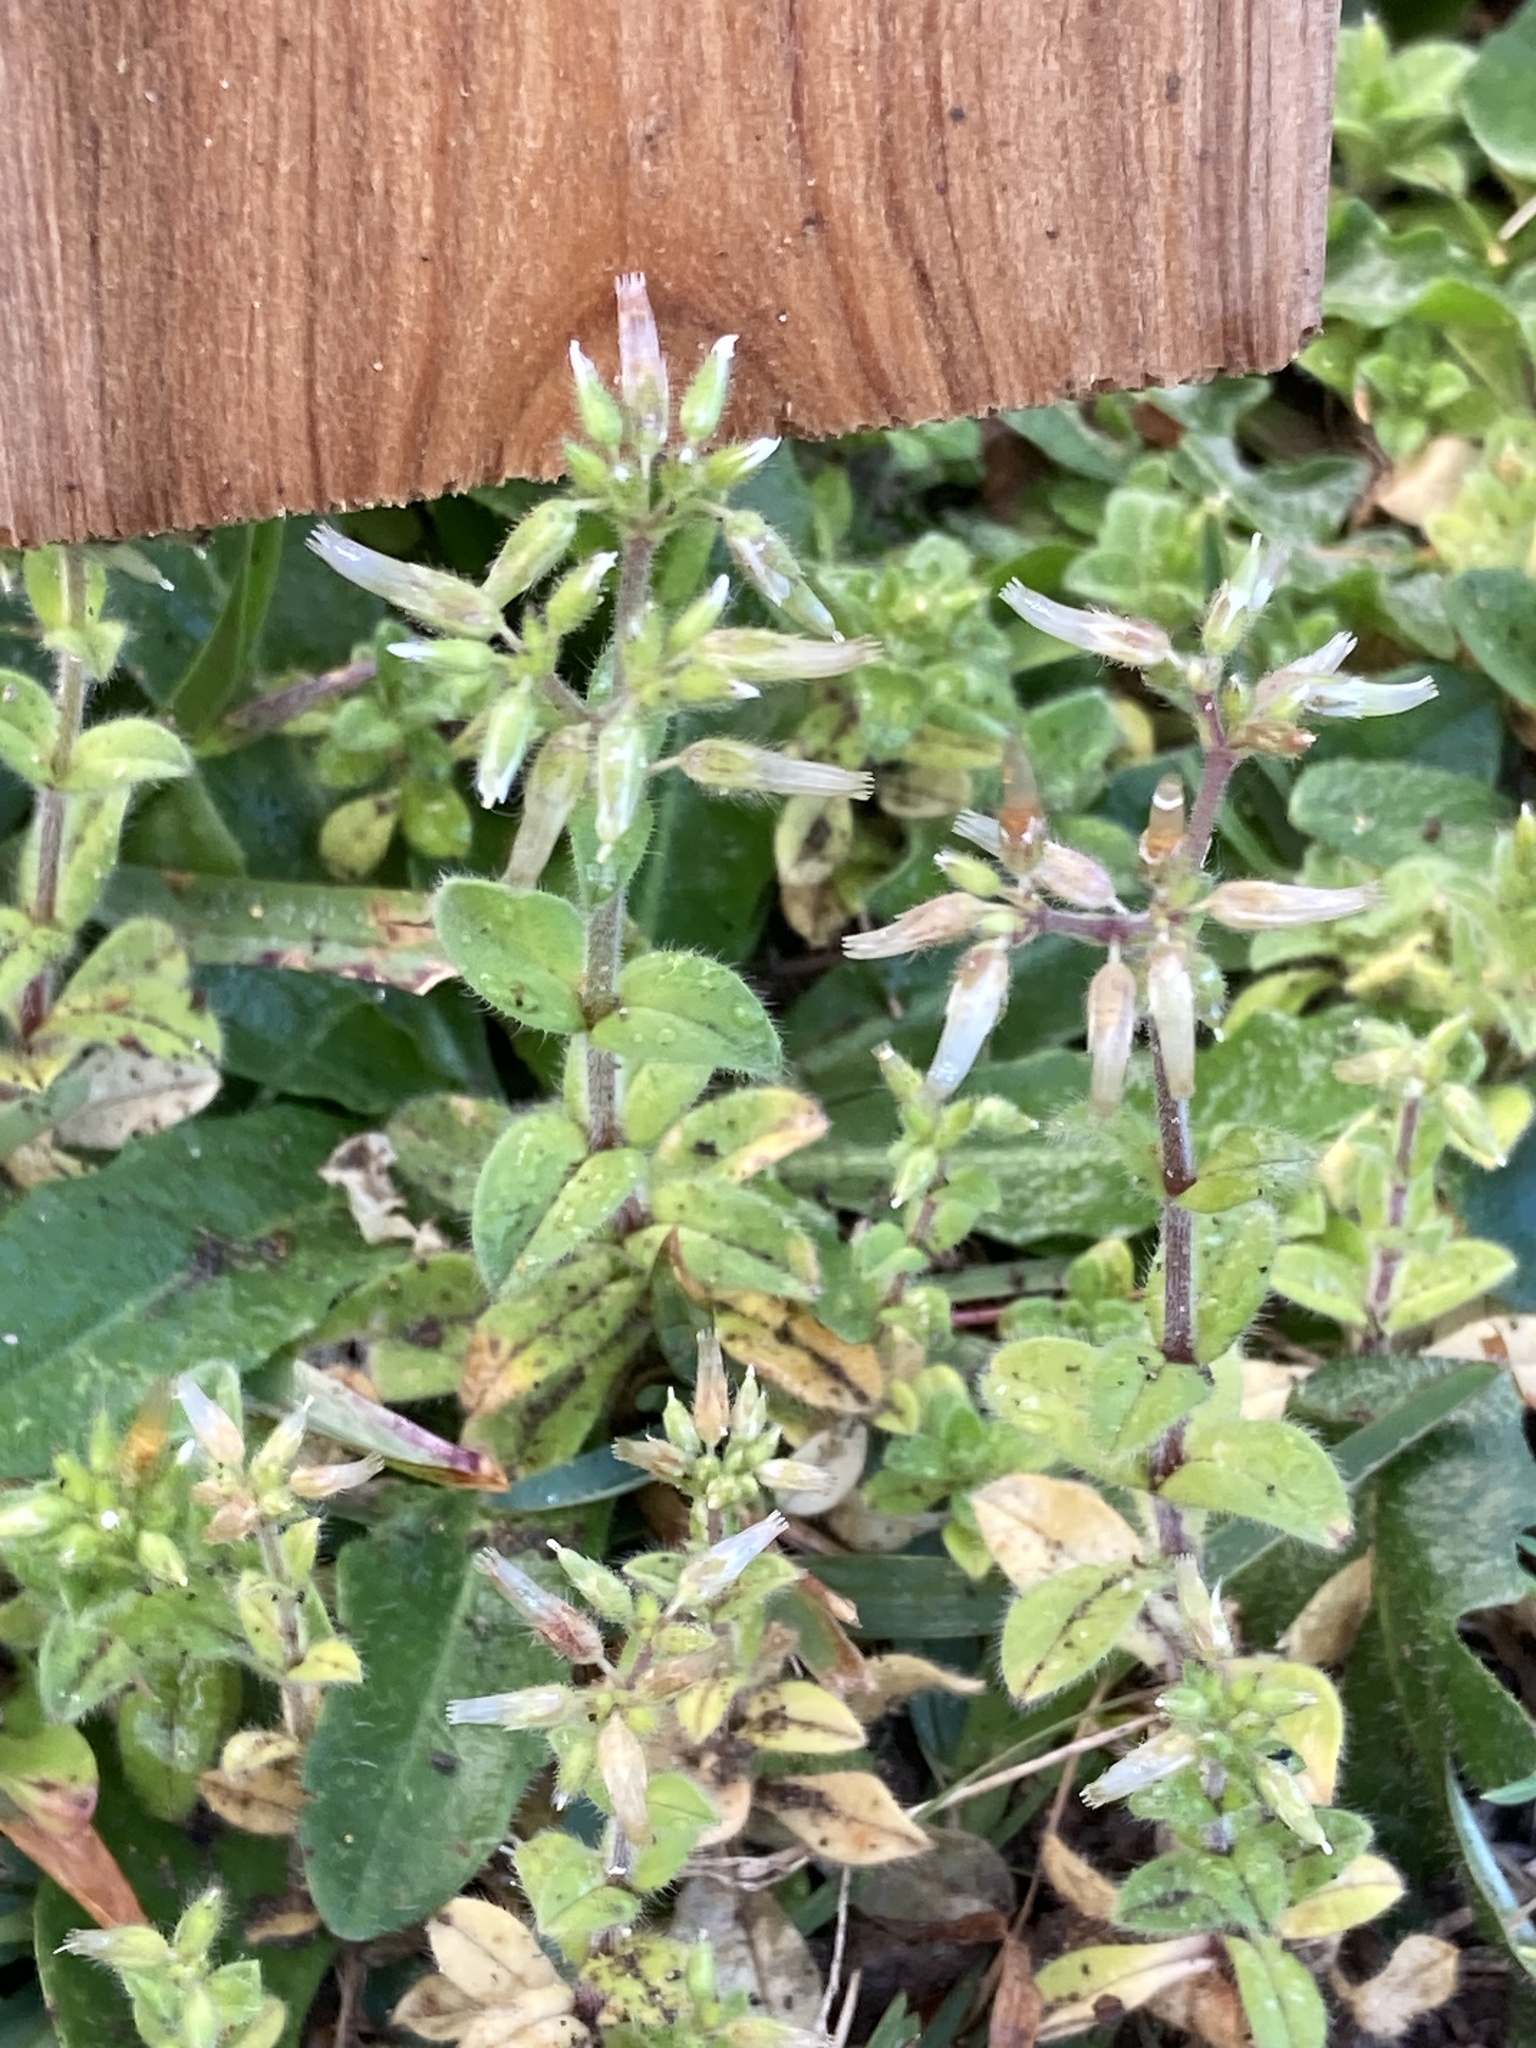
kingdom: Plantae
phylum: Tracheophyta
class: Magnoliopsida
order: Caryophyllales
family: Caryophyllaceae
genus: Cerastium
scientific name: Cerastium glomeratum
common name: Sticky chickweed
